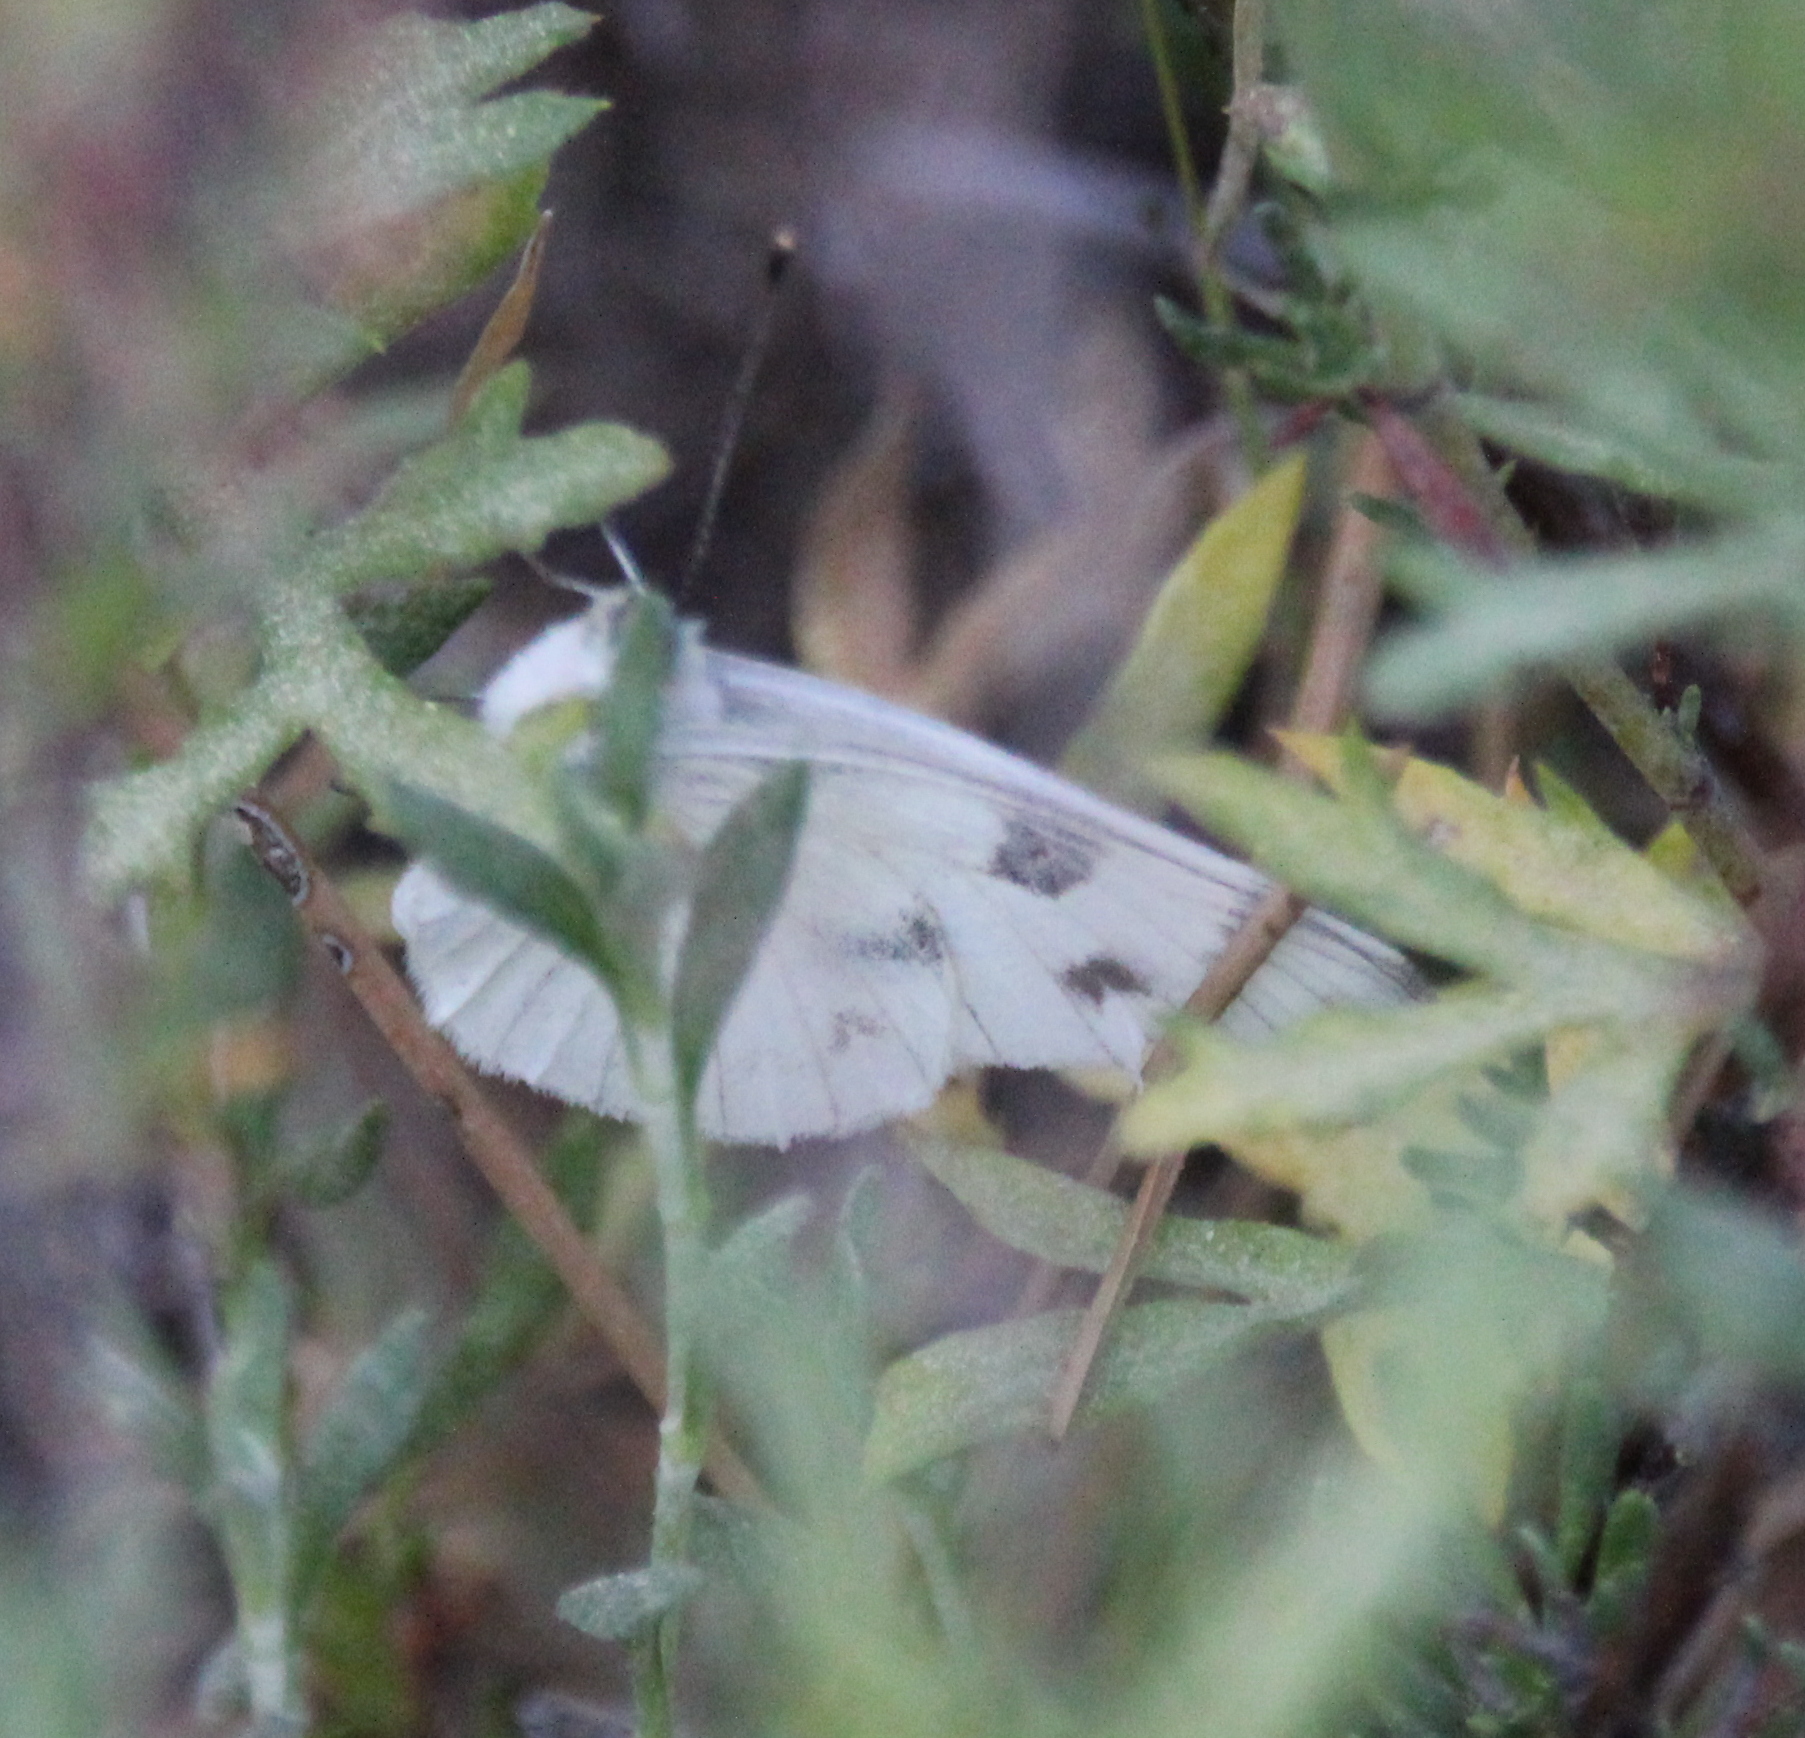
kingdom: Animalia
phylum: Arthropoda
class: Insecta
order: Lepidoptera
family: Pieridae
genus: Pontia
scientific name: Pontia protodice
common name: Checkered white
